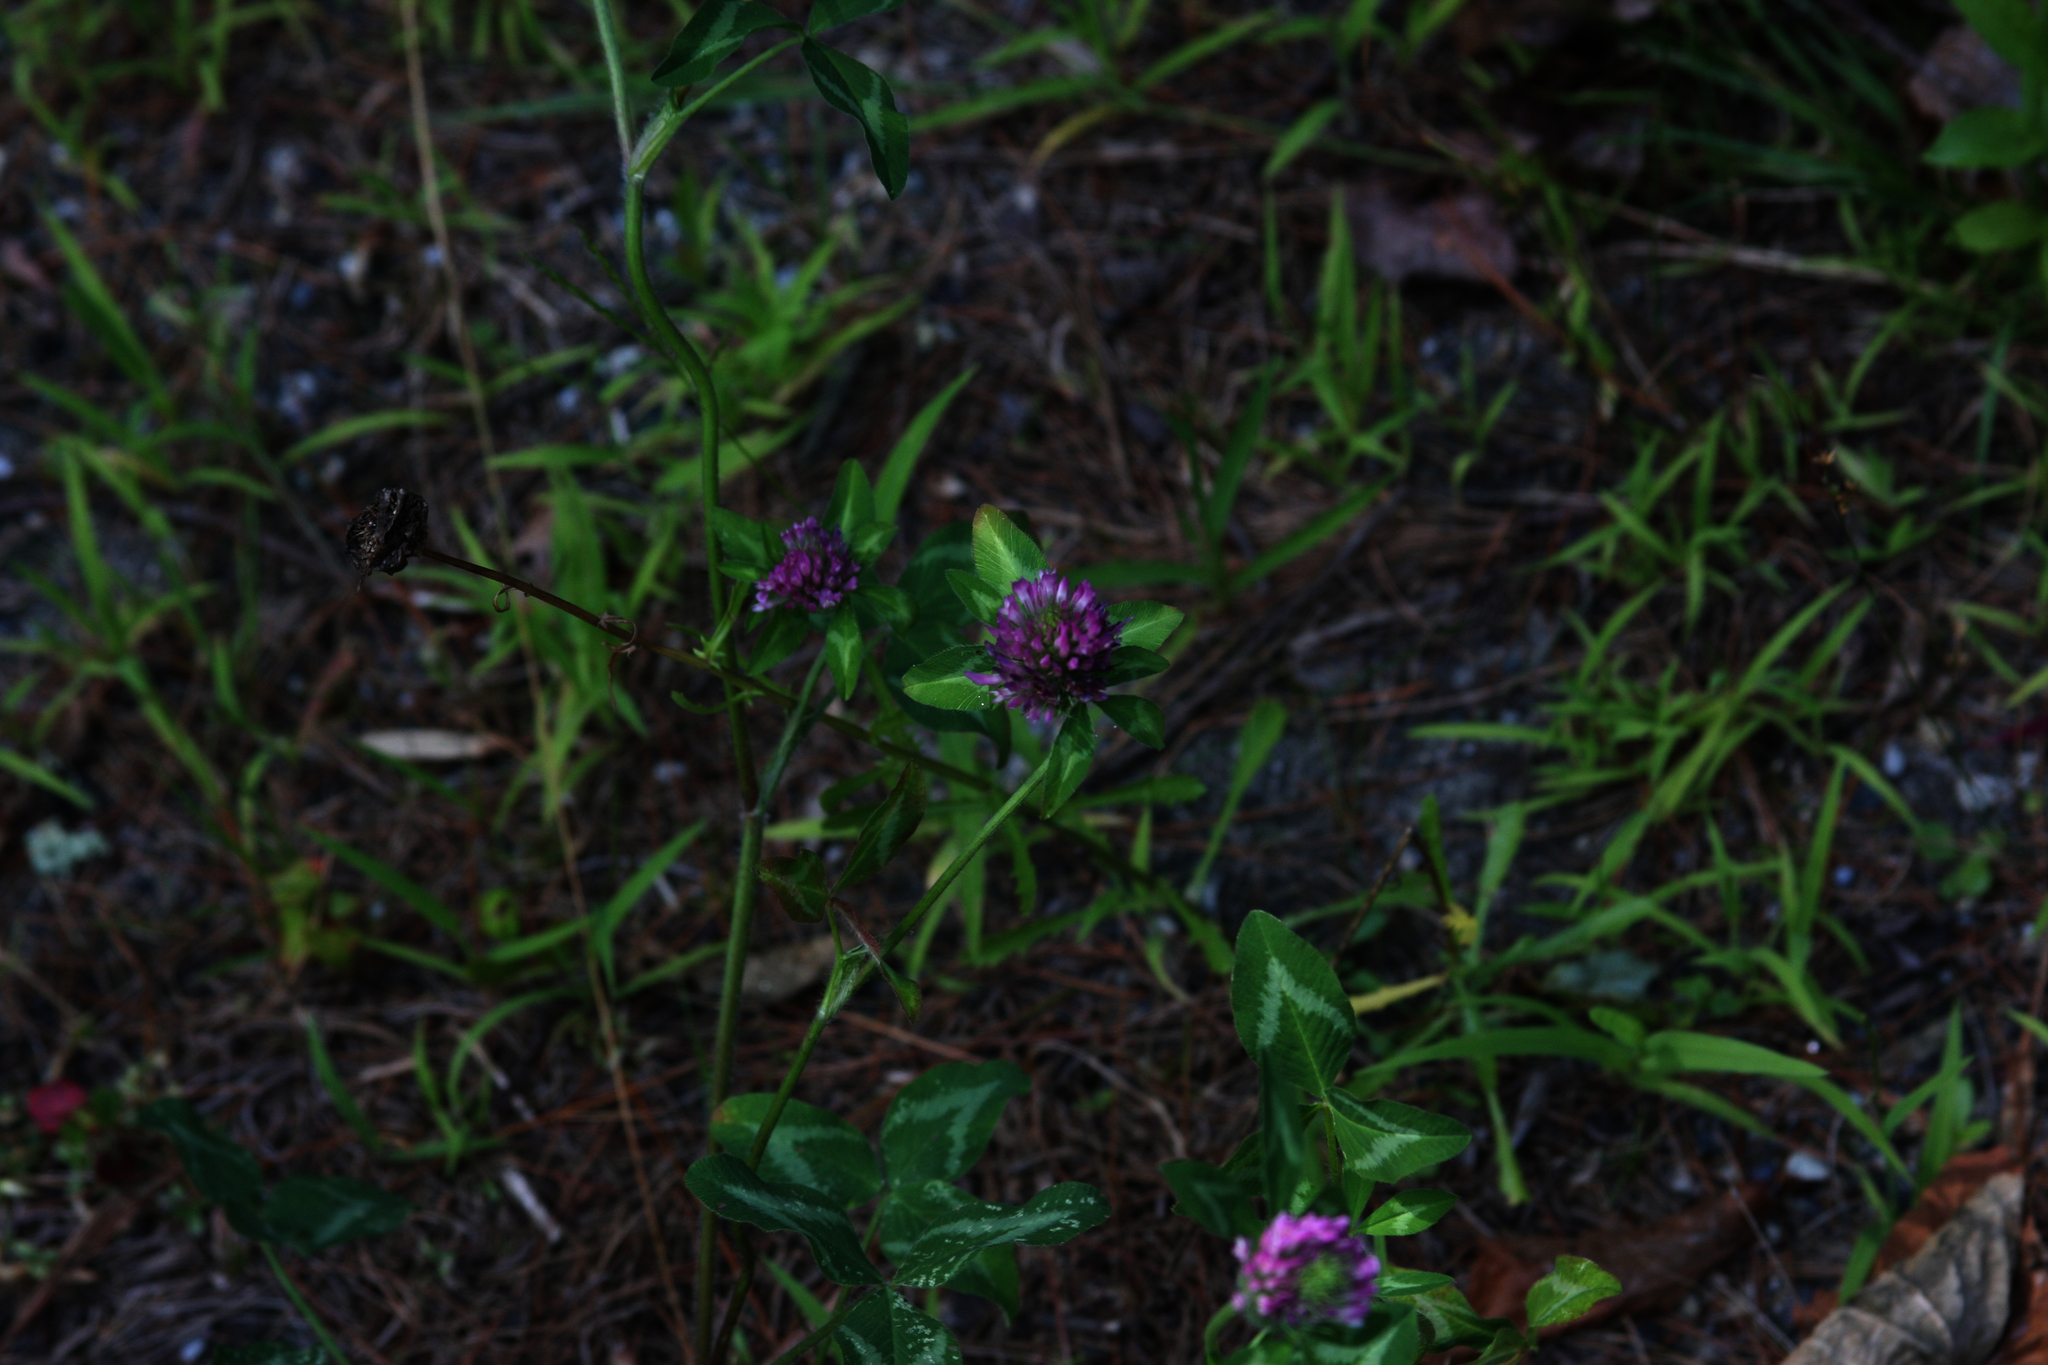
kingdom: Plantae
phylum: Tracheophyta
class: Magnoliopsida
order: Fabales
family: Fabaceae
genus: Trifolium
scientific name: Trifolium pratense
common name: Red clover
